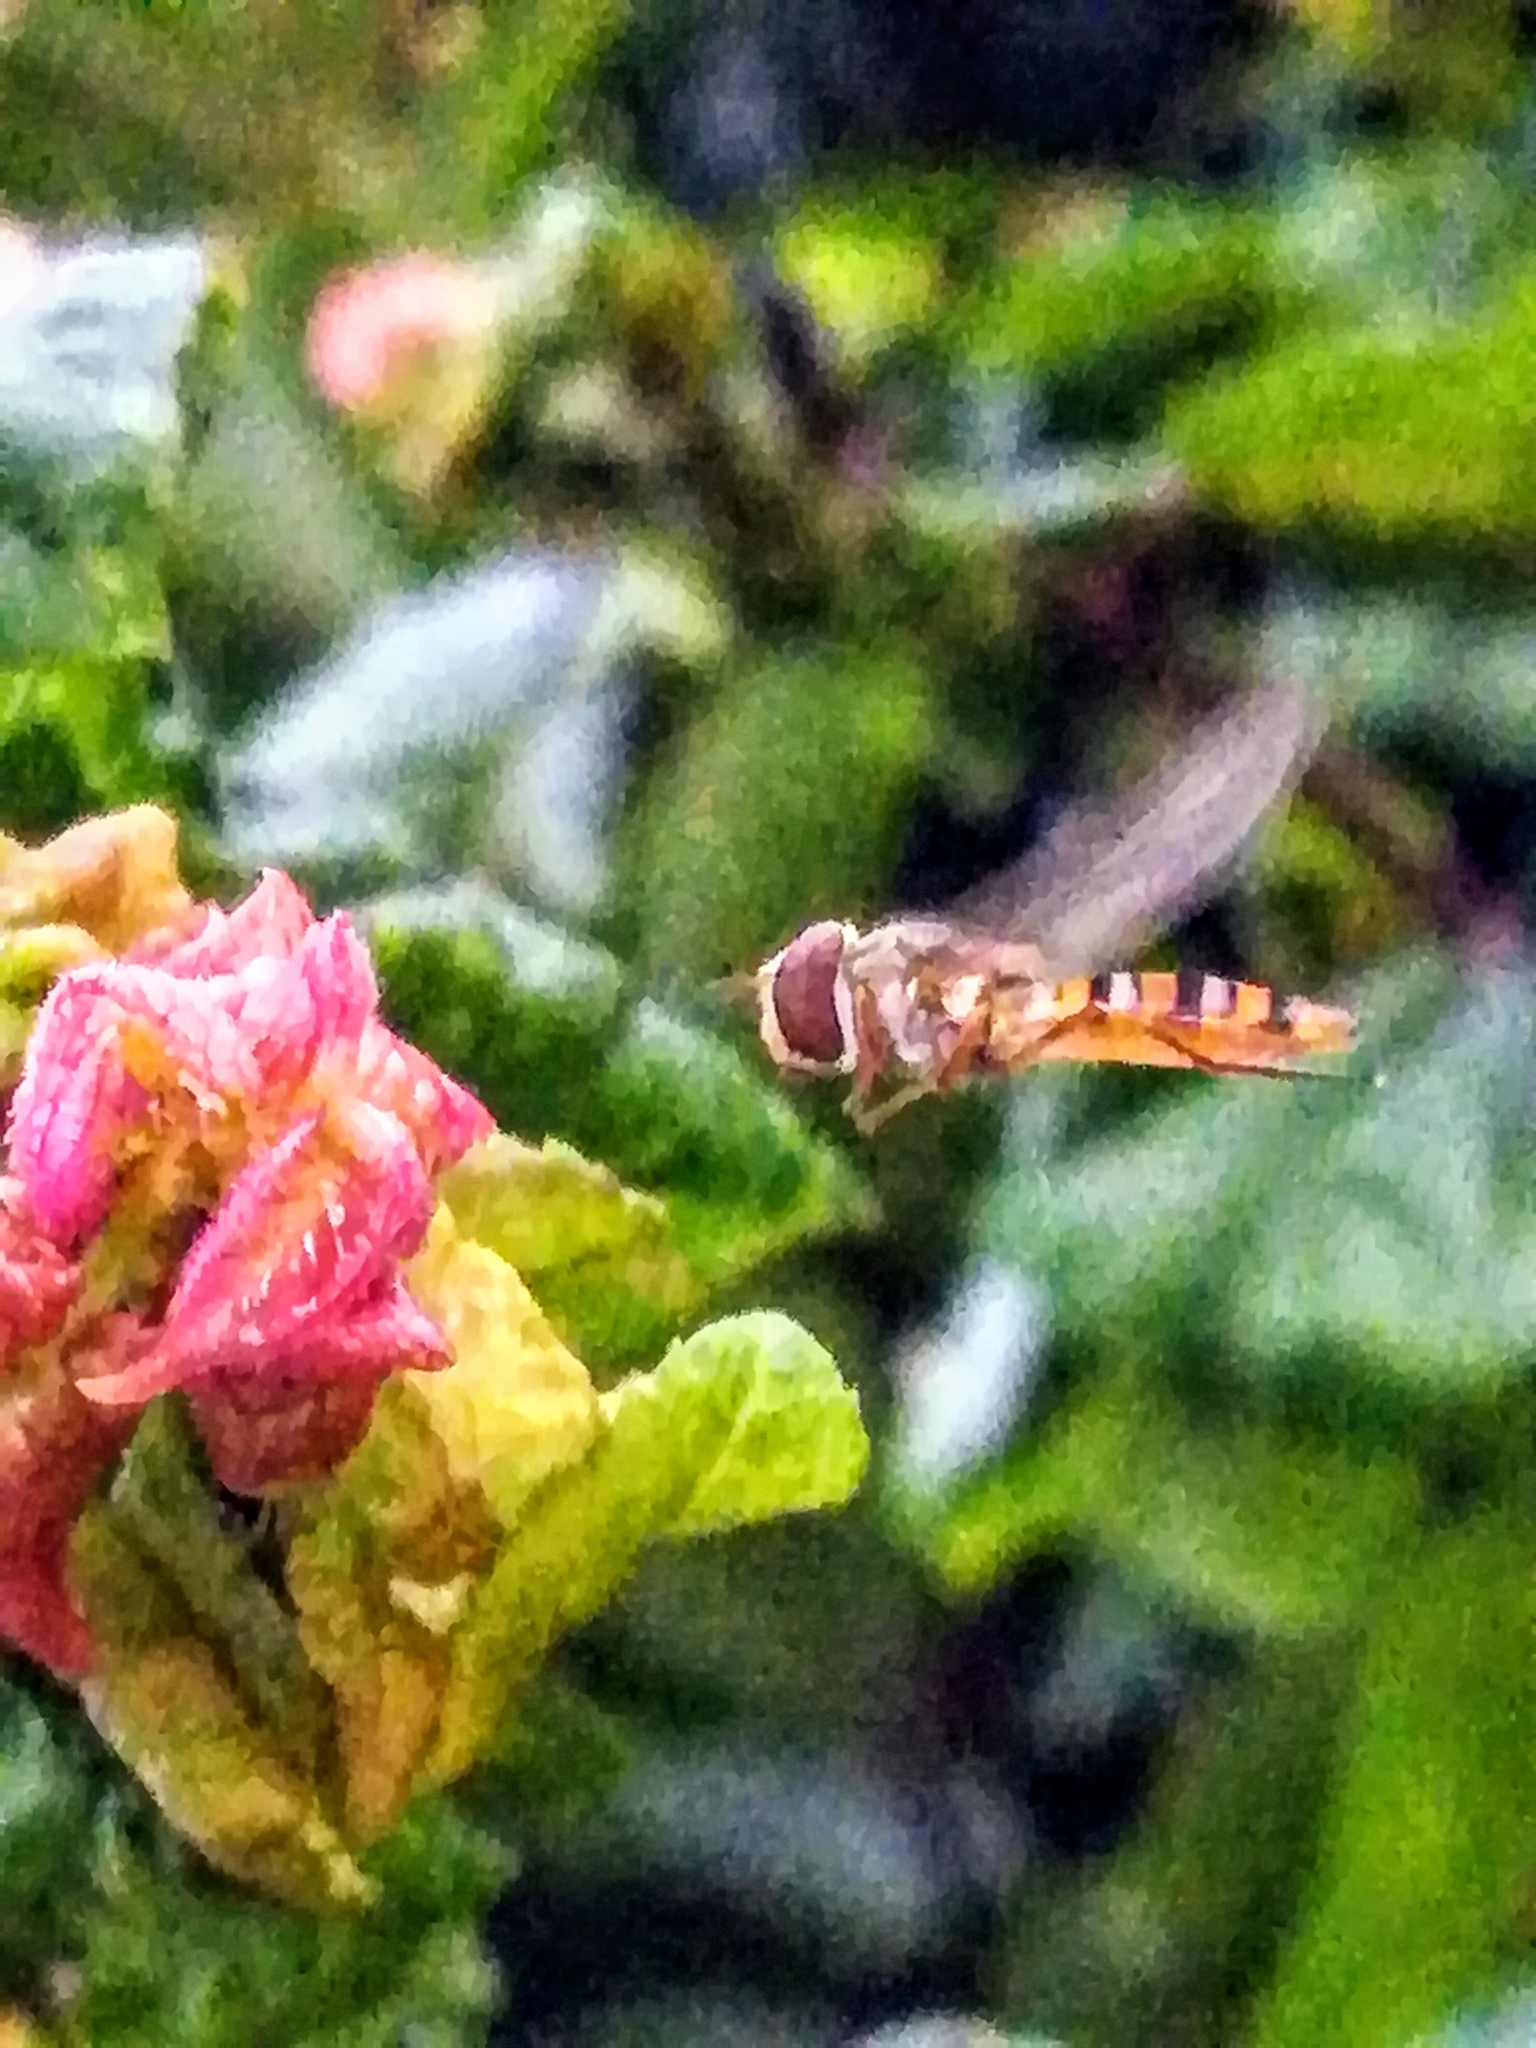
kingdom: Animalia
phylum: Arthropoda
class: Insecta
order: Diptera
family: Syrphidae
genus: Episyrphus
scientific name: Episyrphus balteatus
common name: Marmalade hoverfly
